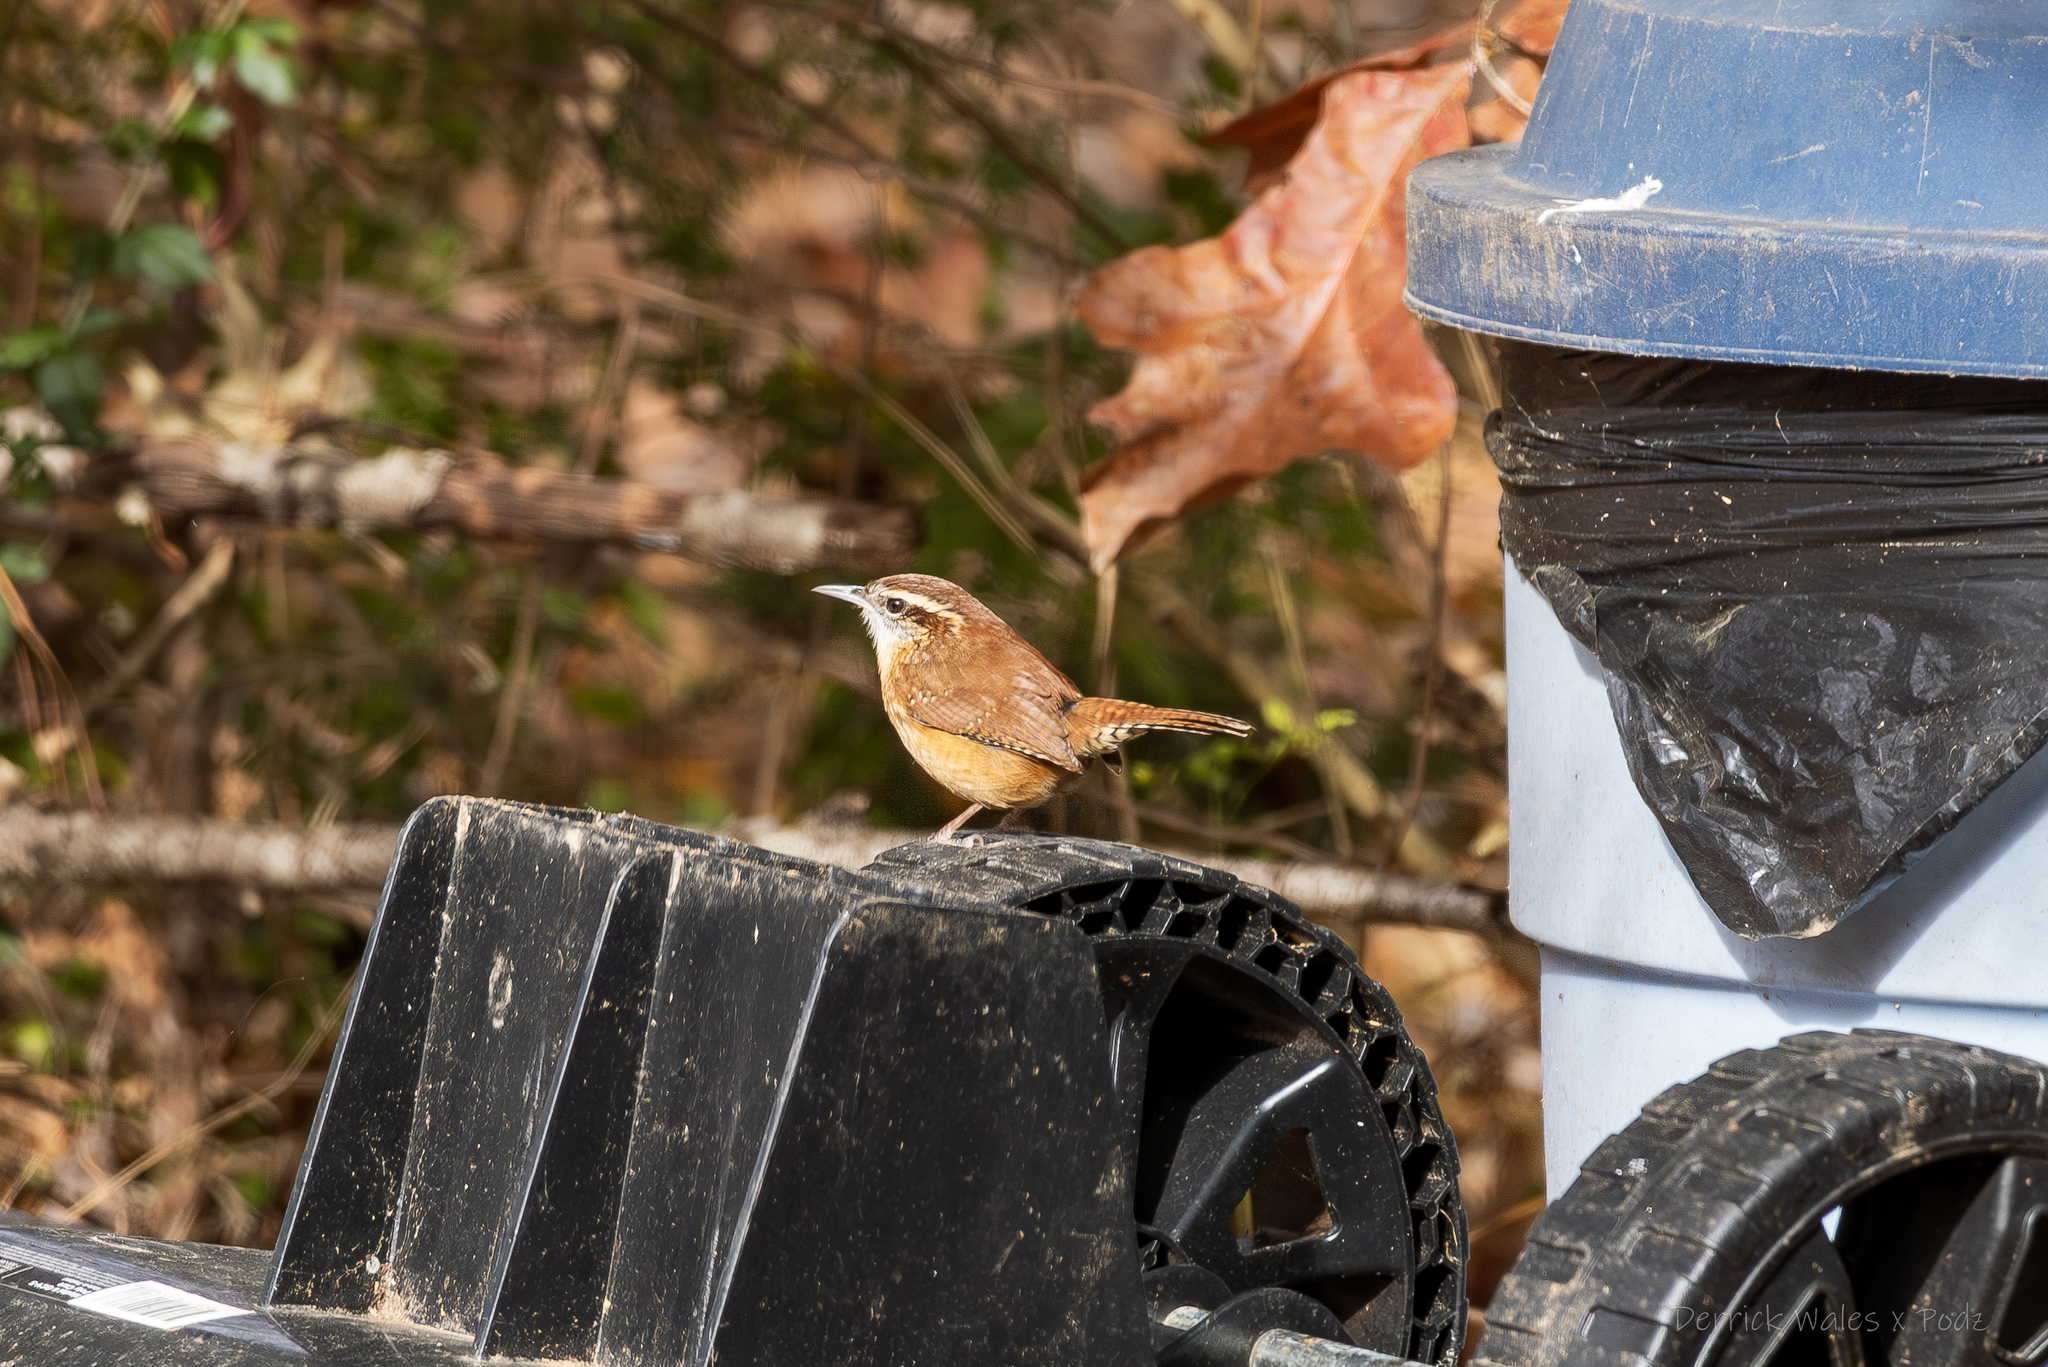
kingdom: Animalia
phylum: Chordata
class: Aves
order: Passeriformes
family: Troglodytidae
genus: Thryothorus
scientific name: Thryothorus ludovicianus
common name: Carolina wren
